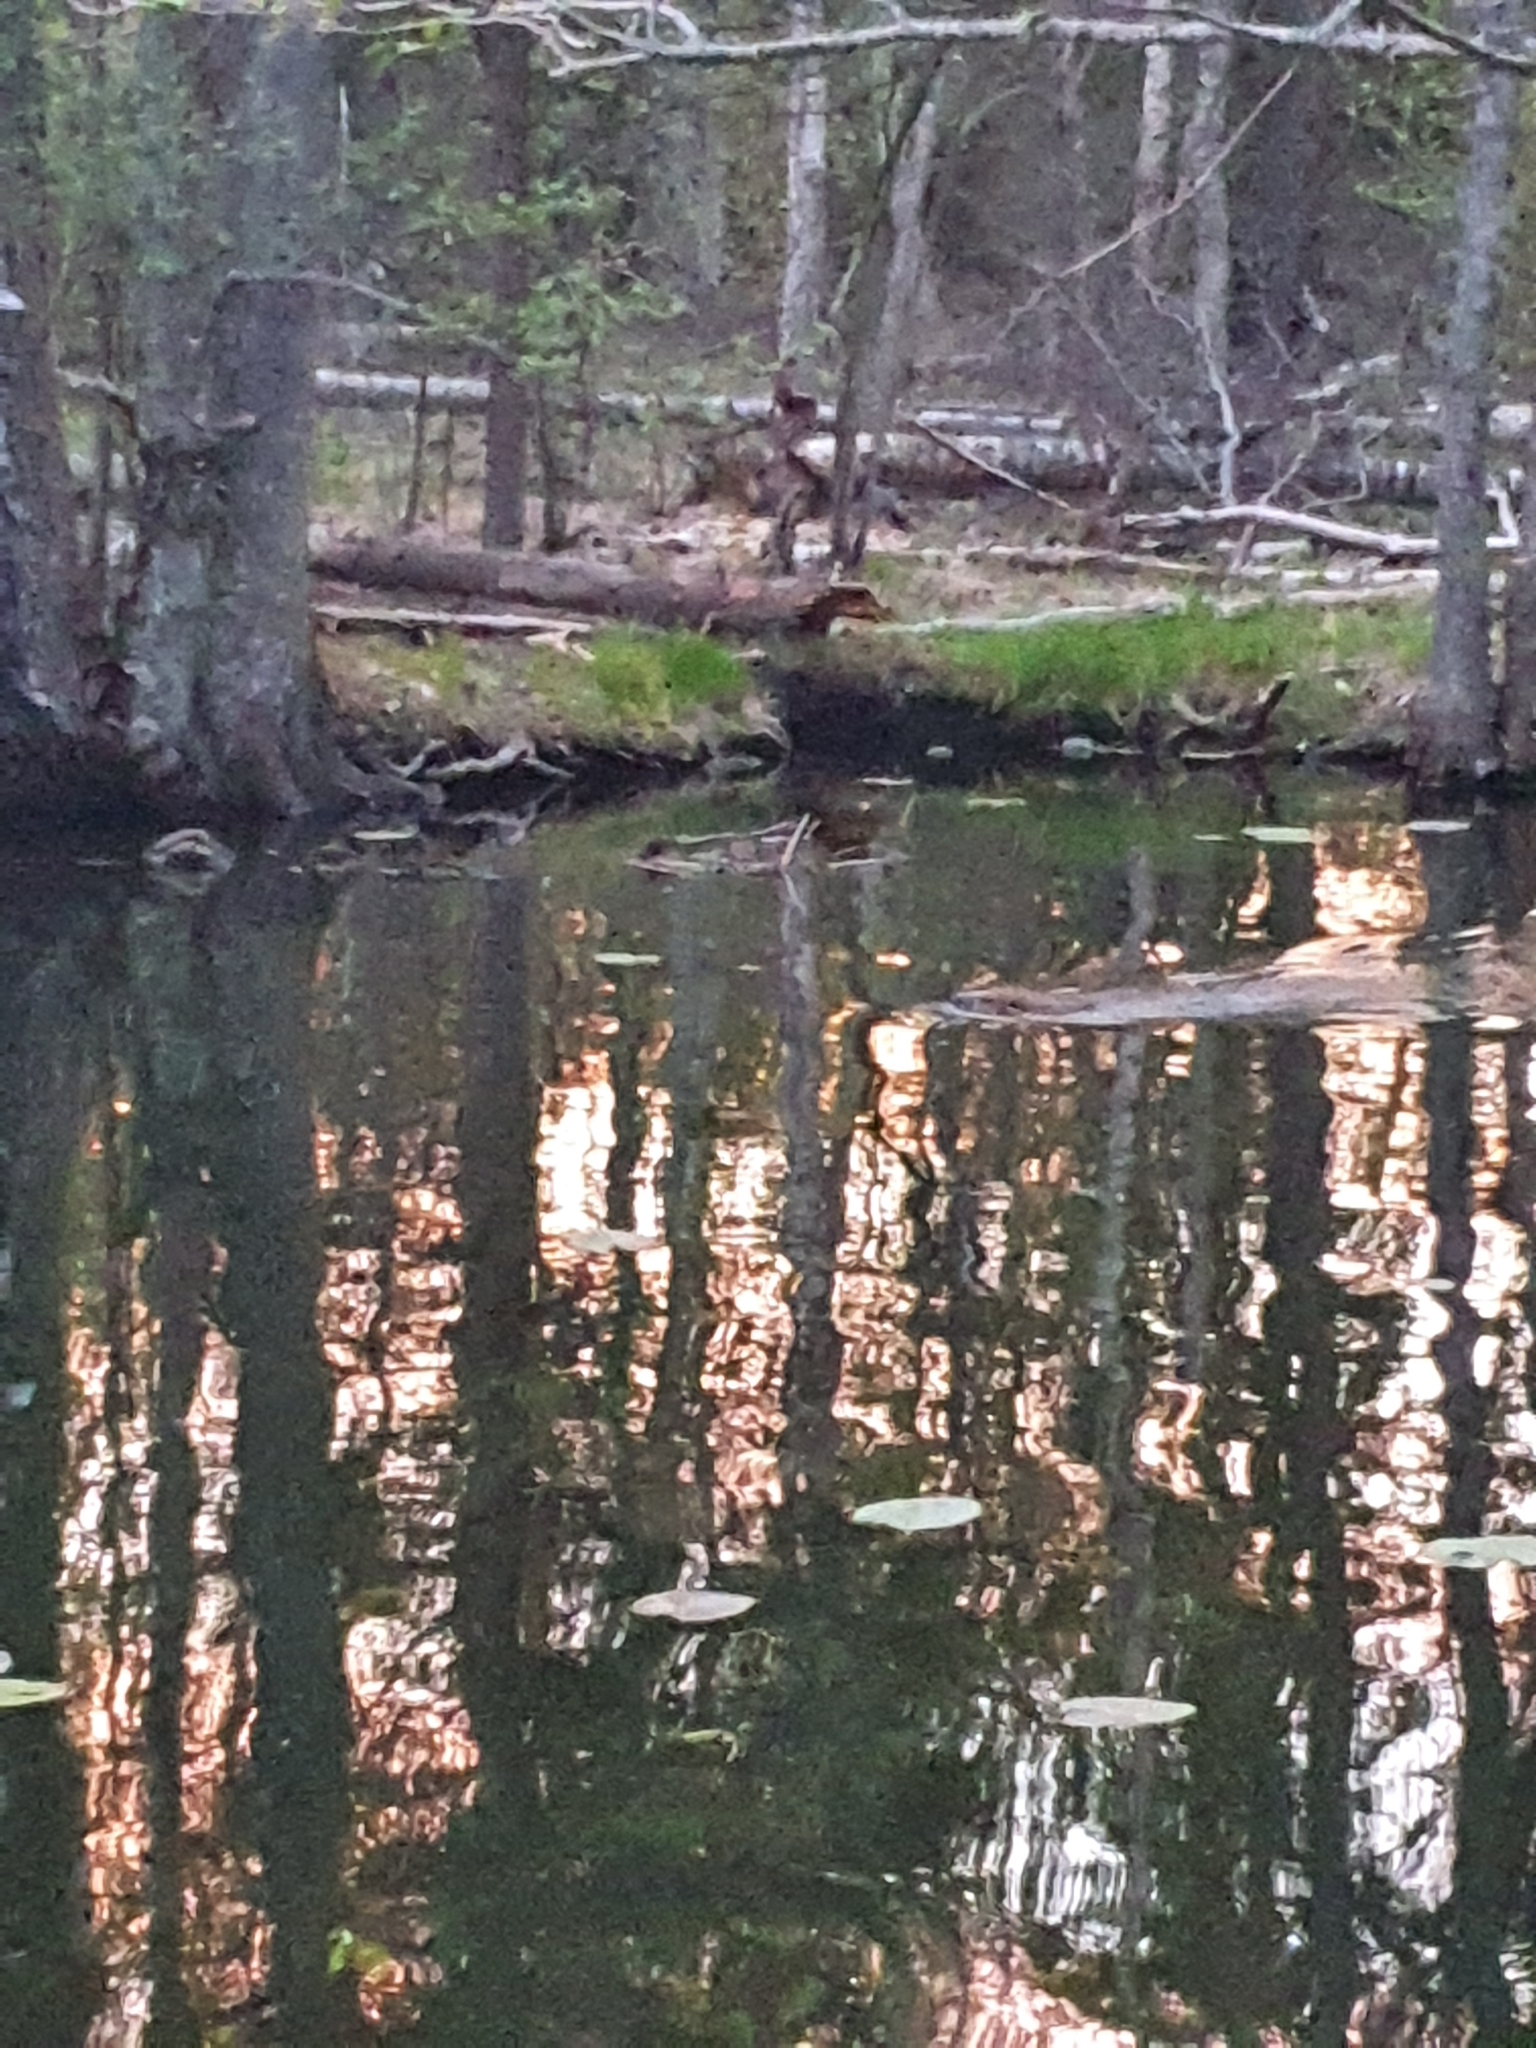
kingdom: Animalia
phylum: Chordata
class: Mammalia
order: Rodentia
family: Castoridae
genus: Castor
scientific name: Castor fiber
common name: Eurasian beaver
